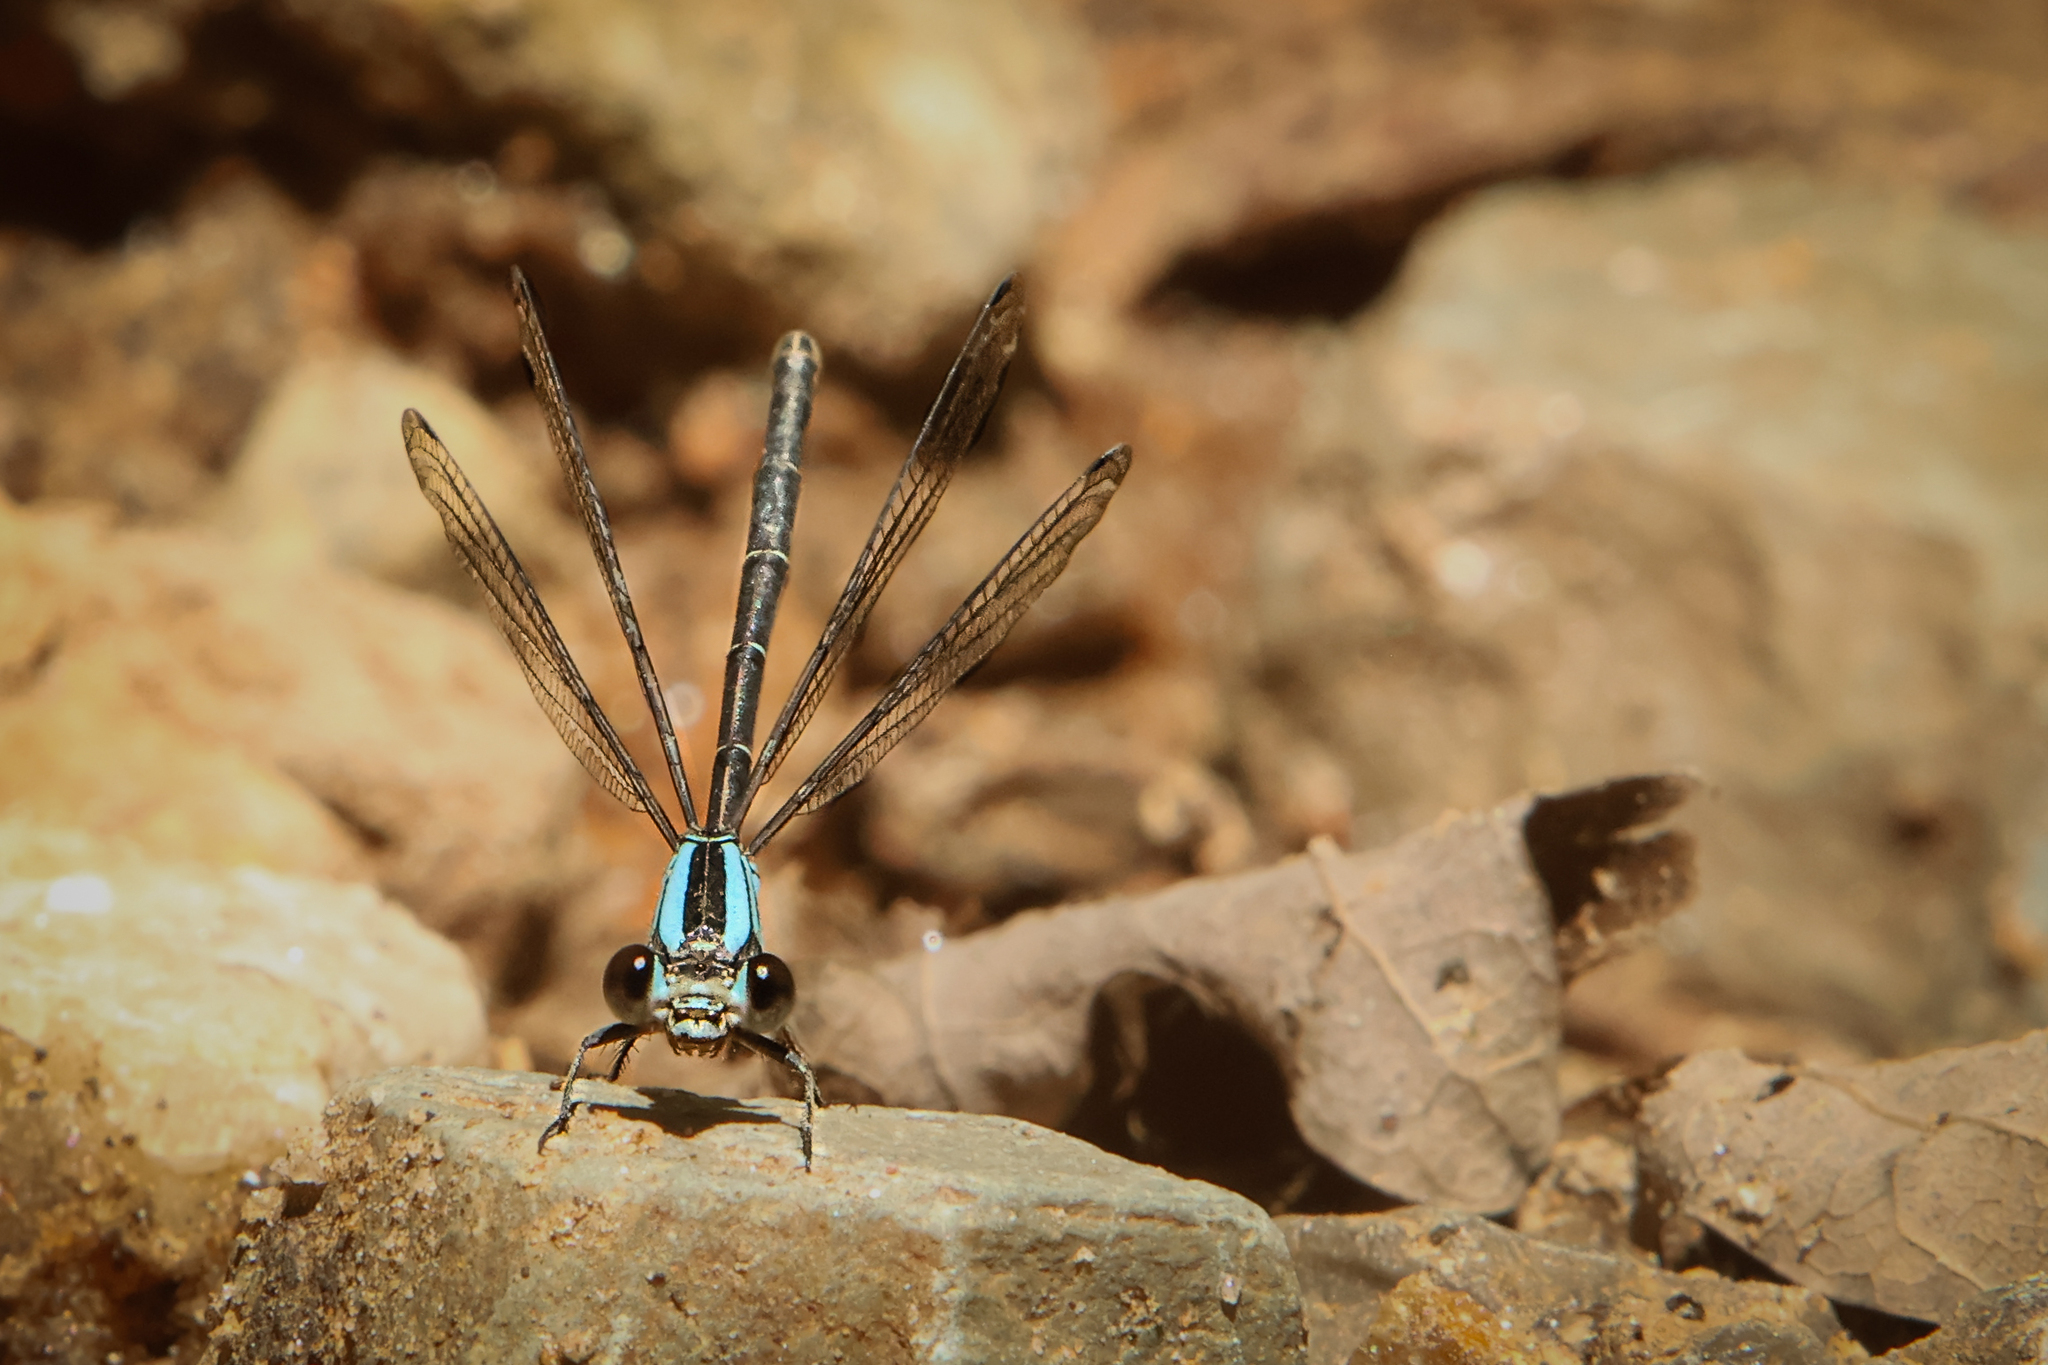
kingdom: Animalia
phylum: Arthropoda
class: Insecta
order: Odonata
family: Coenagrionidae
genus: Argia
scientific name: Argia moesta
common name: Powdered dancer
